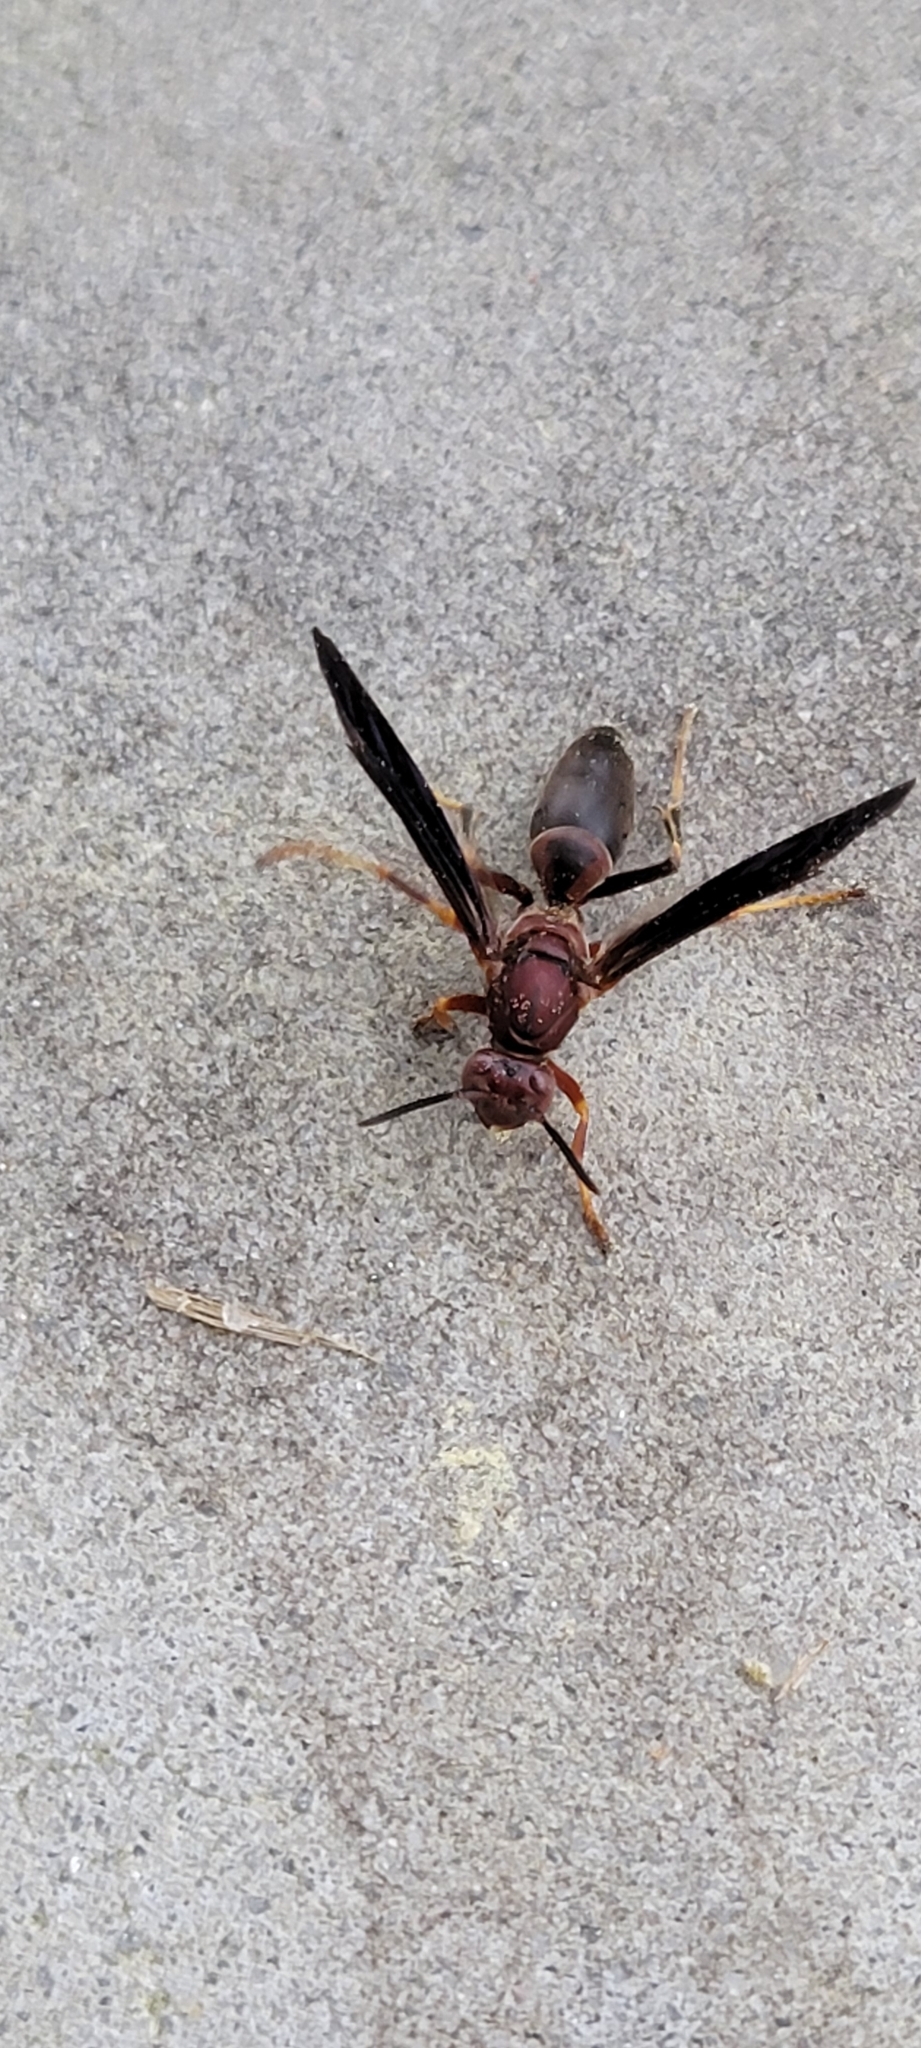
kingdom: Animalia
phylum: Arthropoda
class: Insecta
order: Hymenoptera
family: Eumenidae
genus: Polistes
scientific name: Polistes metricus
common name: Metric paper wasp
